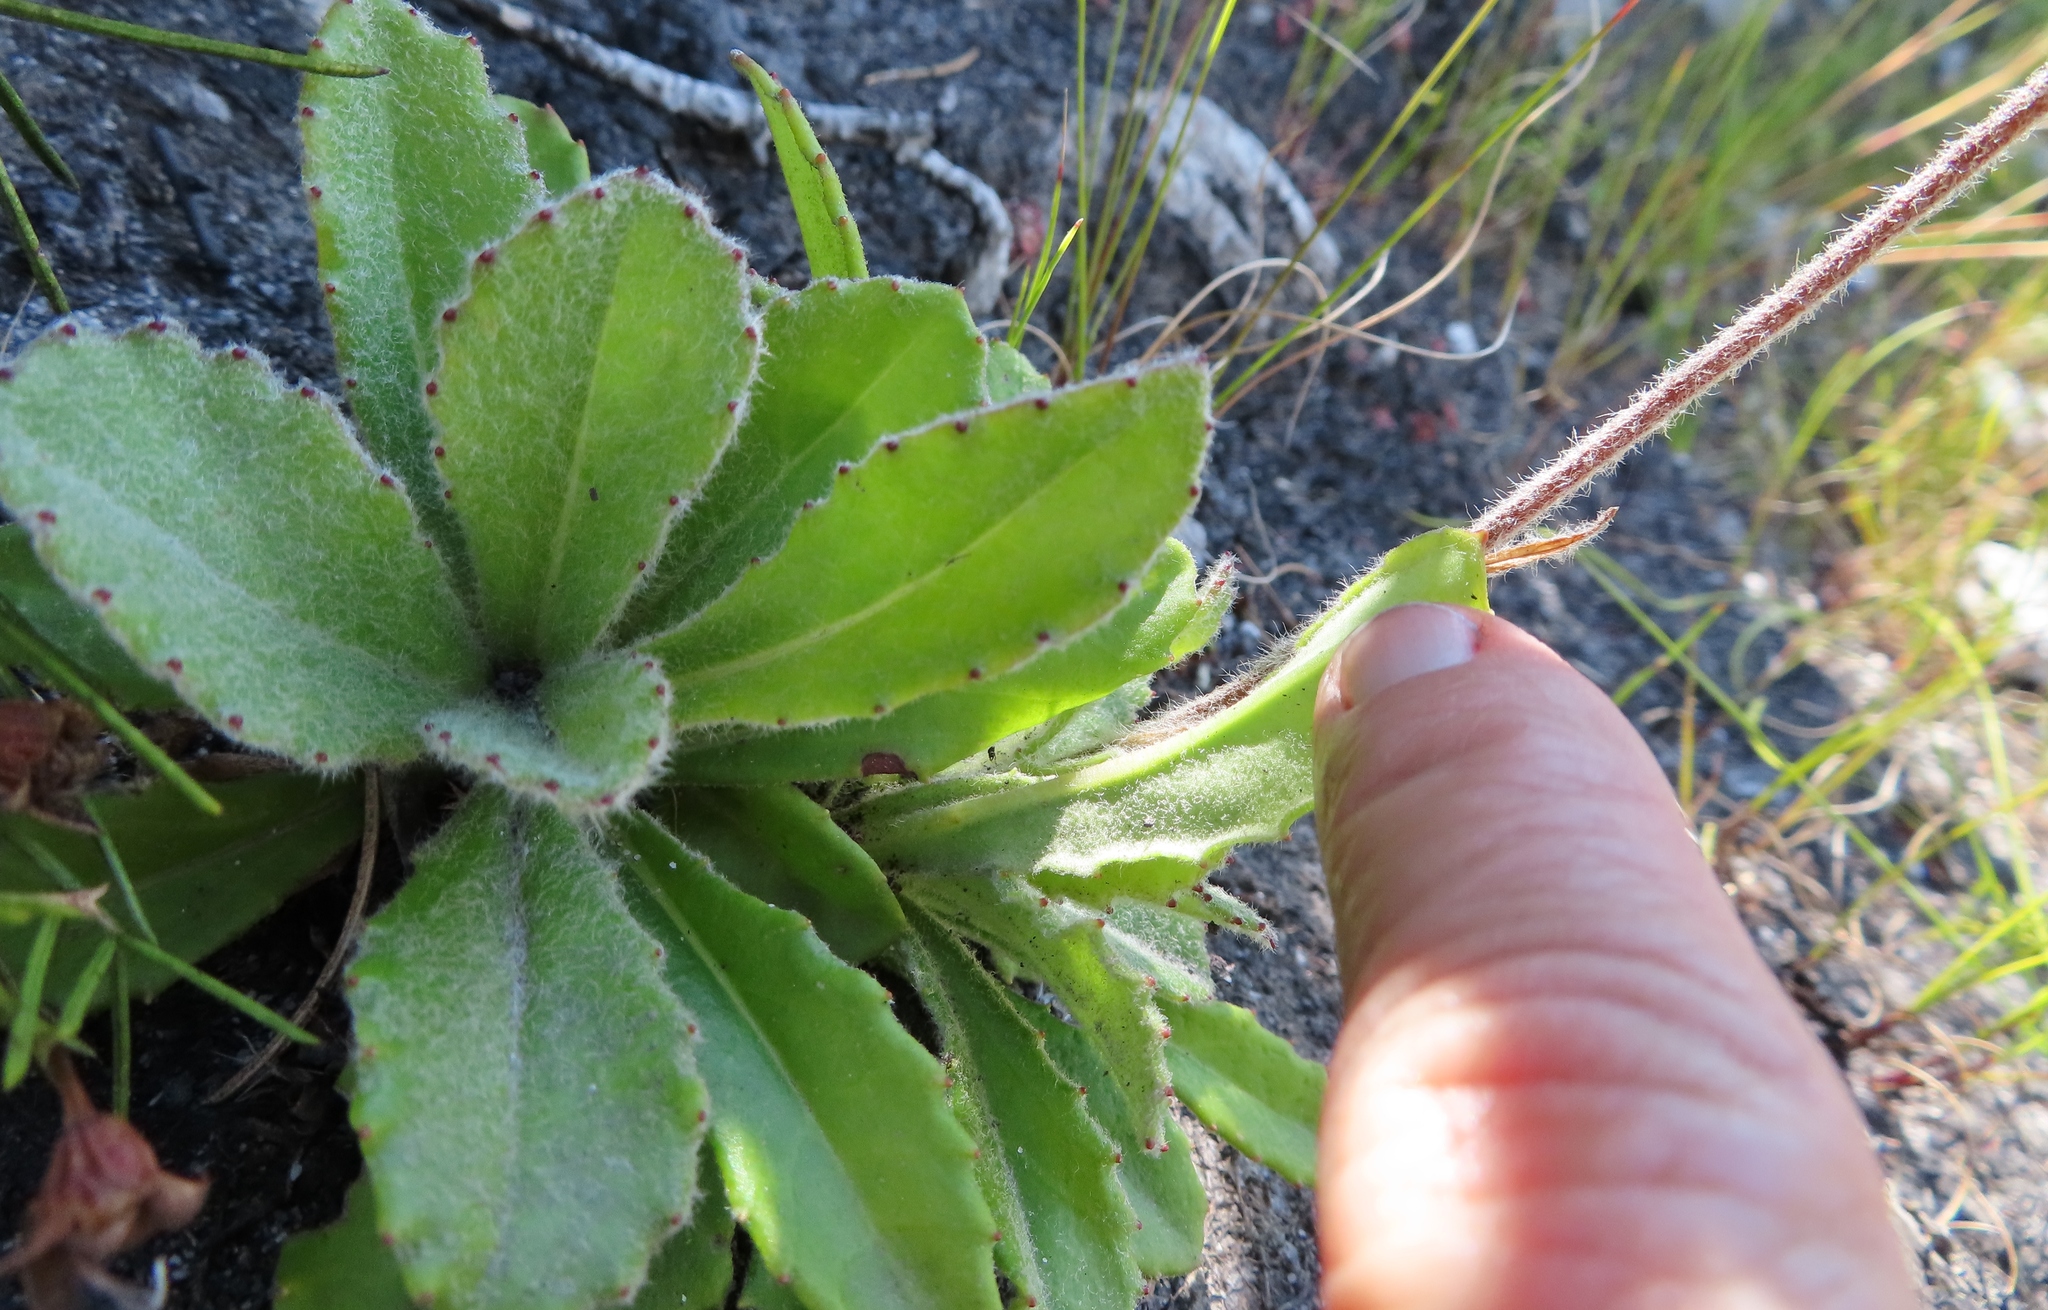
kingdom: Plantae
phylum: Tracheophyta
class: Magnoliopsida
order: Asterales
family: Asteraceae
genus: Mairia
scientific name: Mairia purpurata
